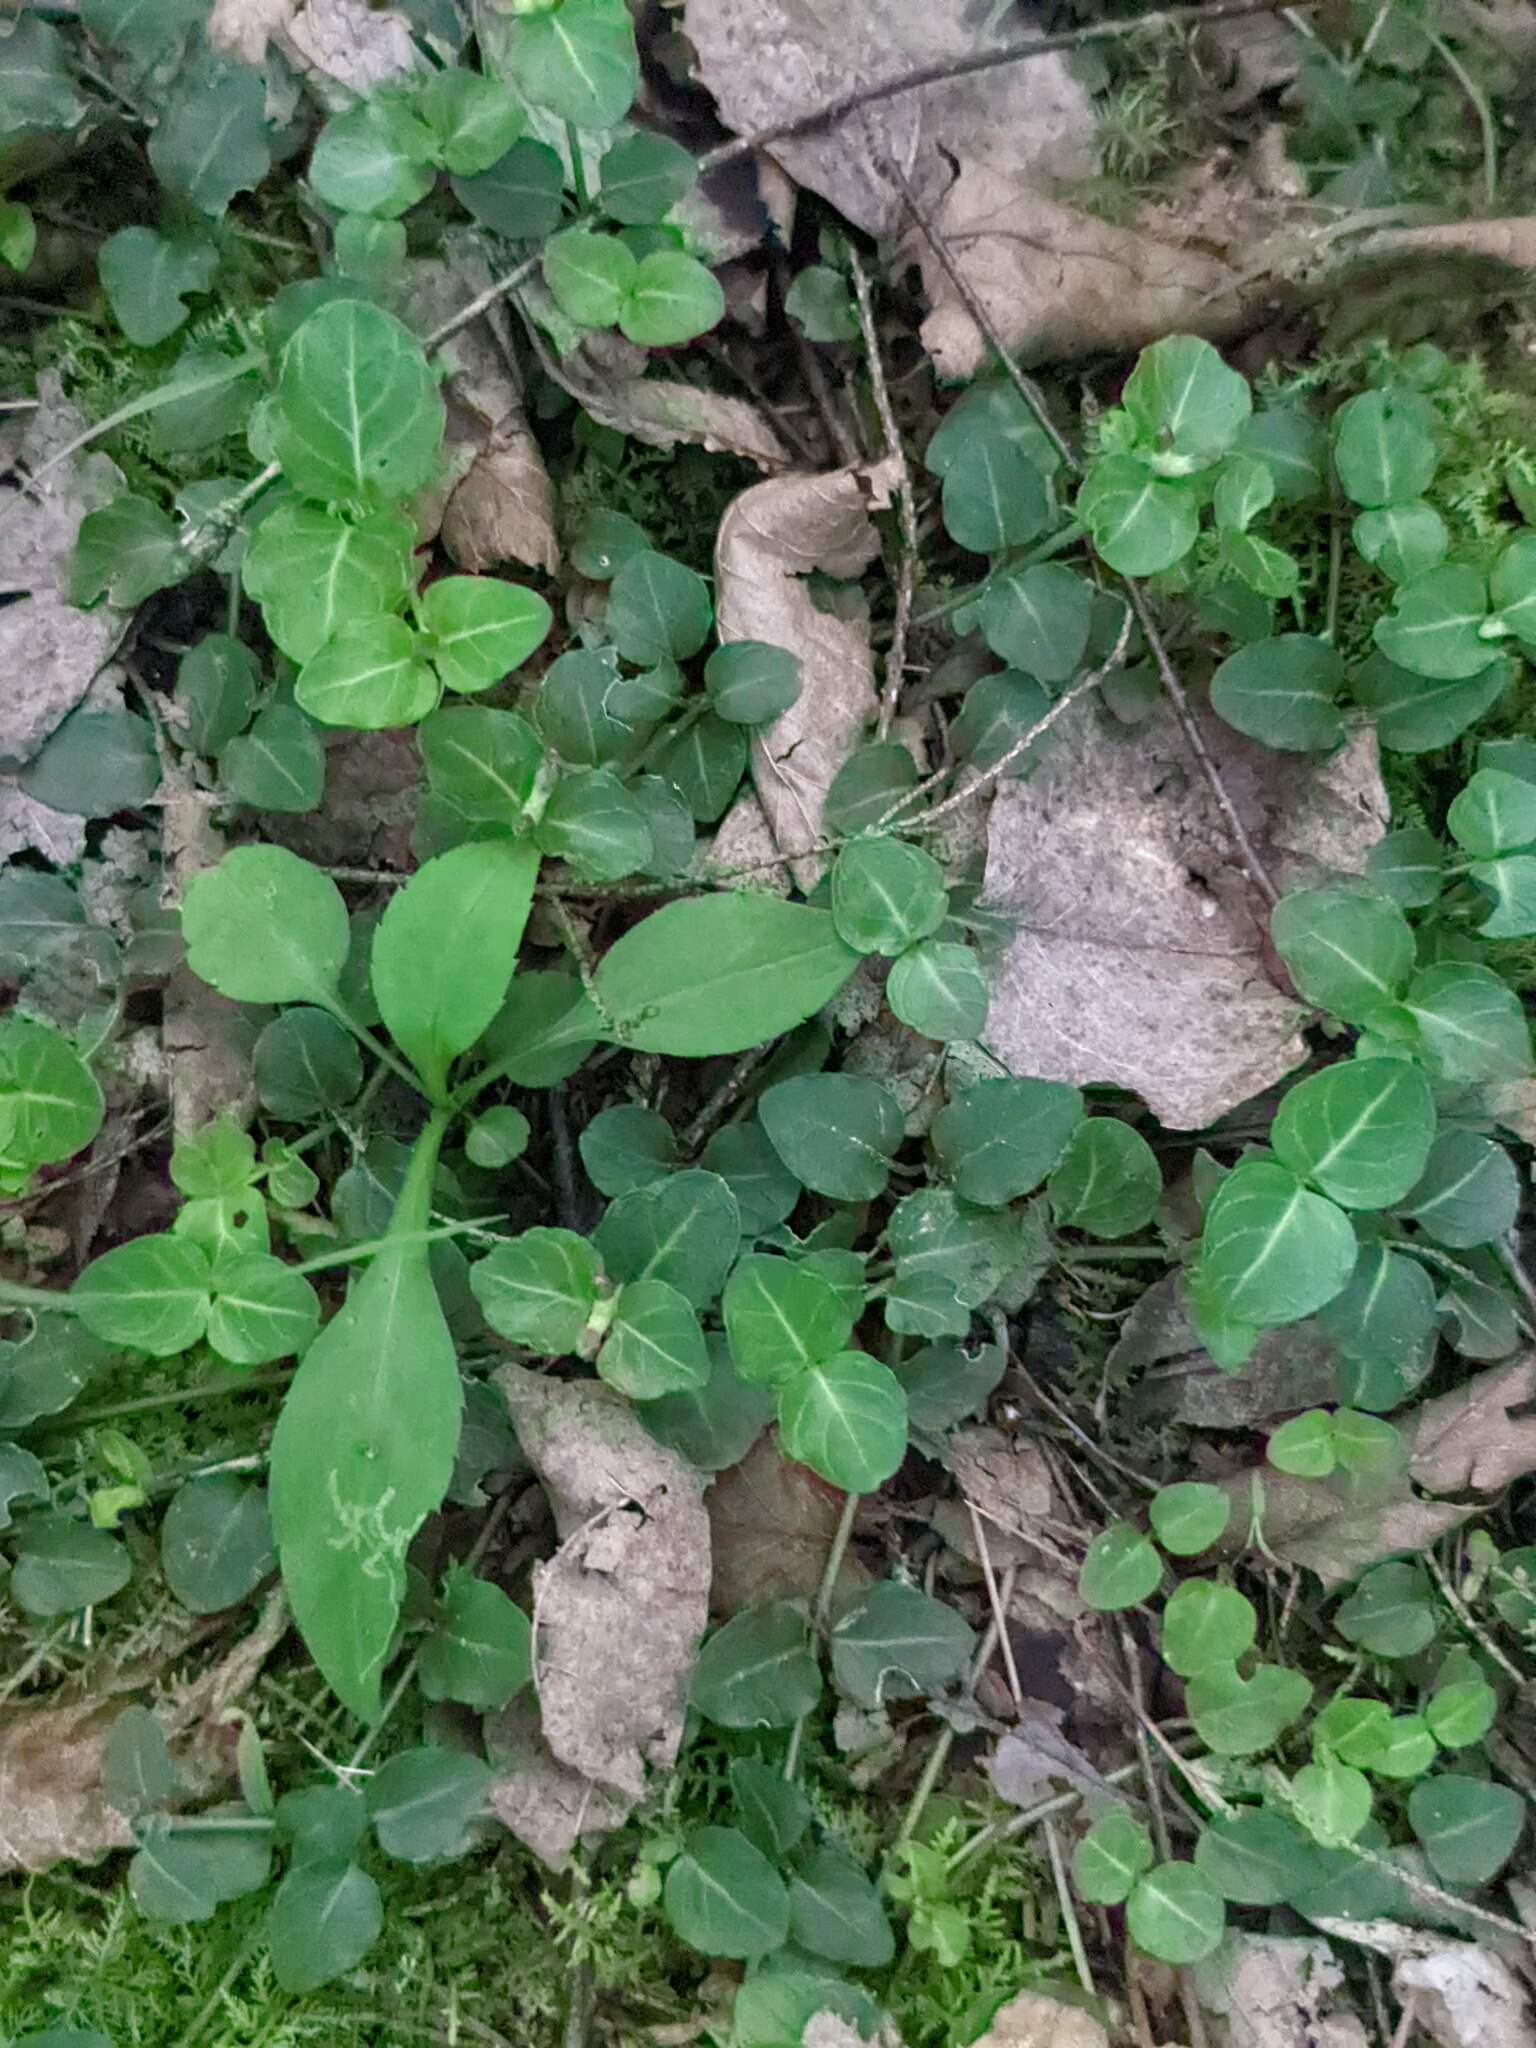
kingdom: Plantae
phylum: Tracheophyta
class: Magnoliopsida
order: Gentianales
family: Rubiaceae
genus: Mitchella
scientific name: Mitchella repens
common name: Partridge-berry
